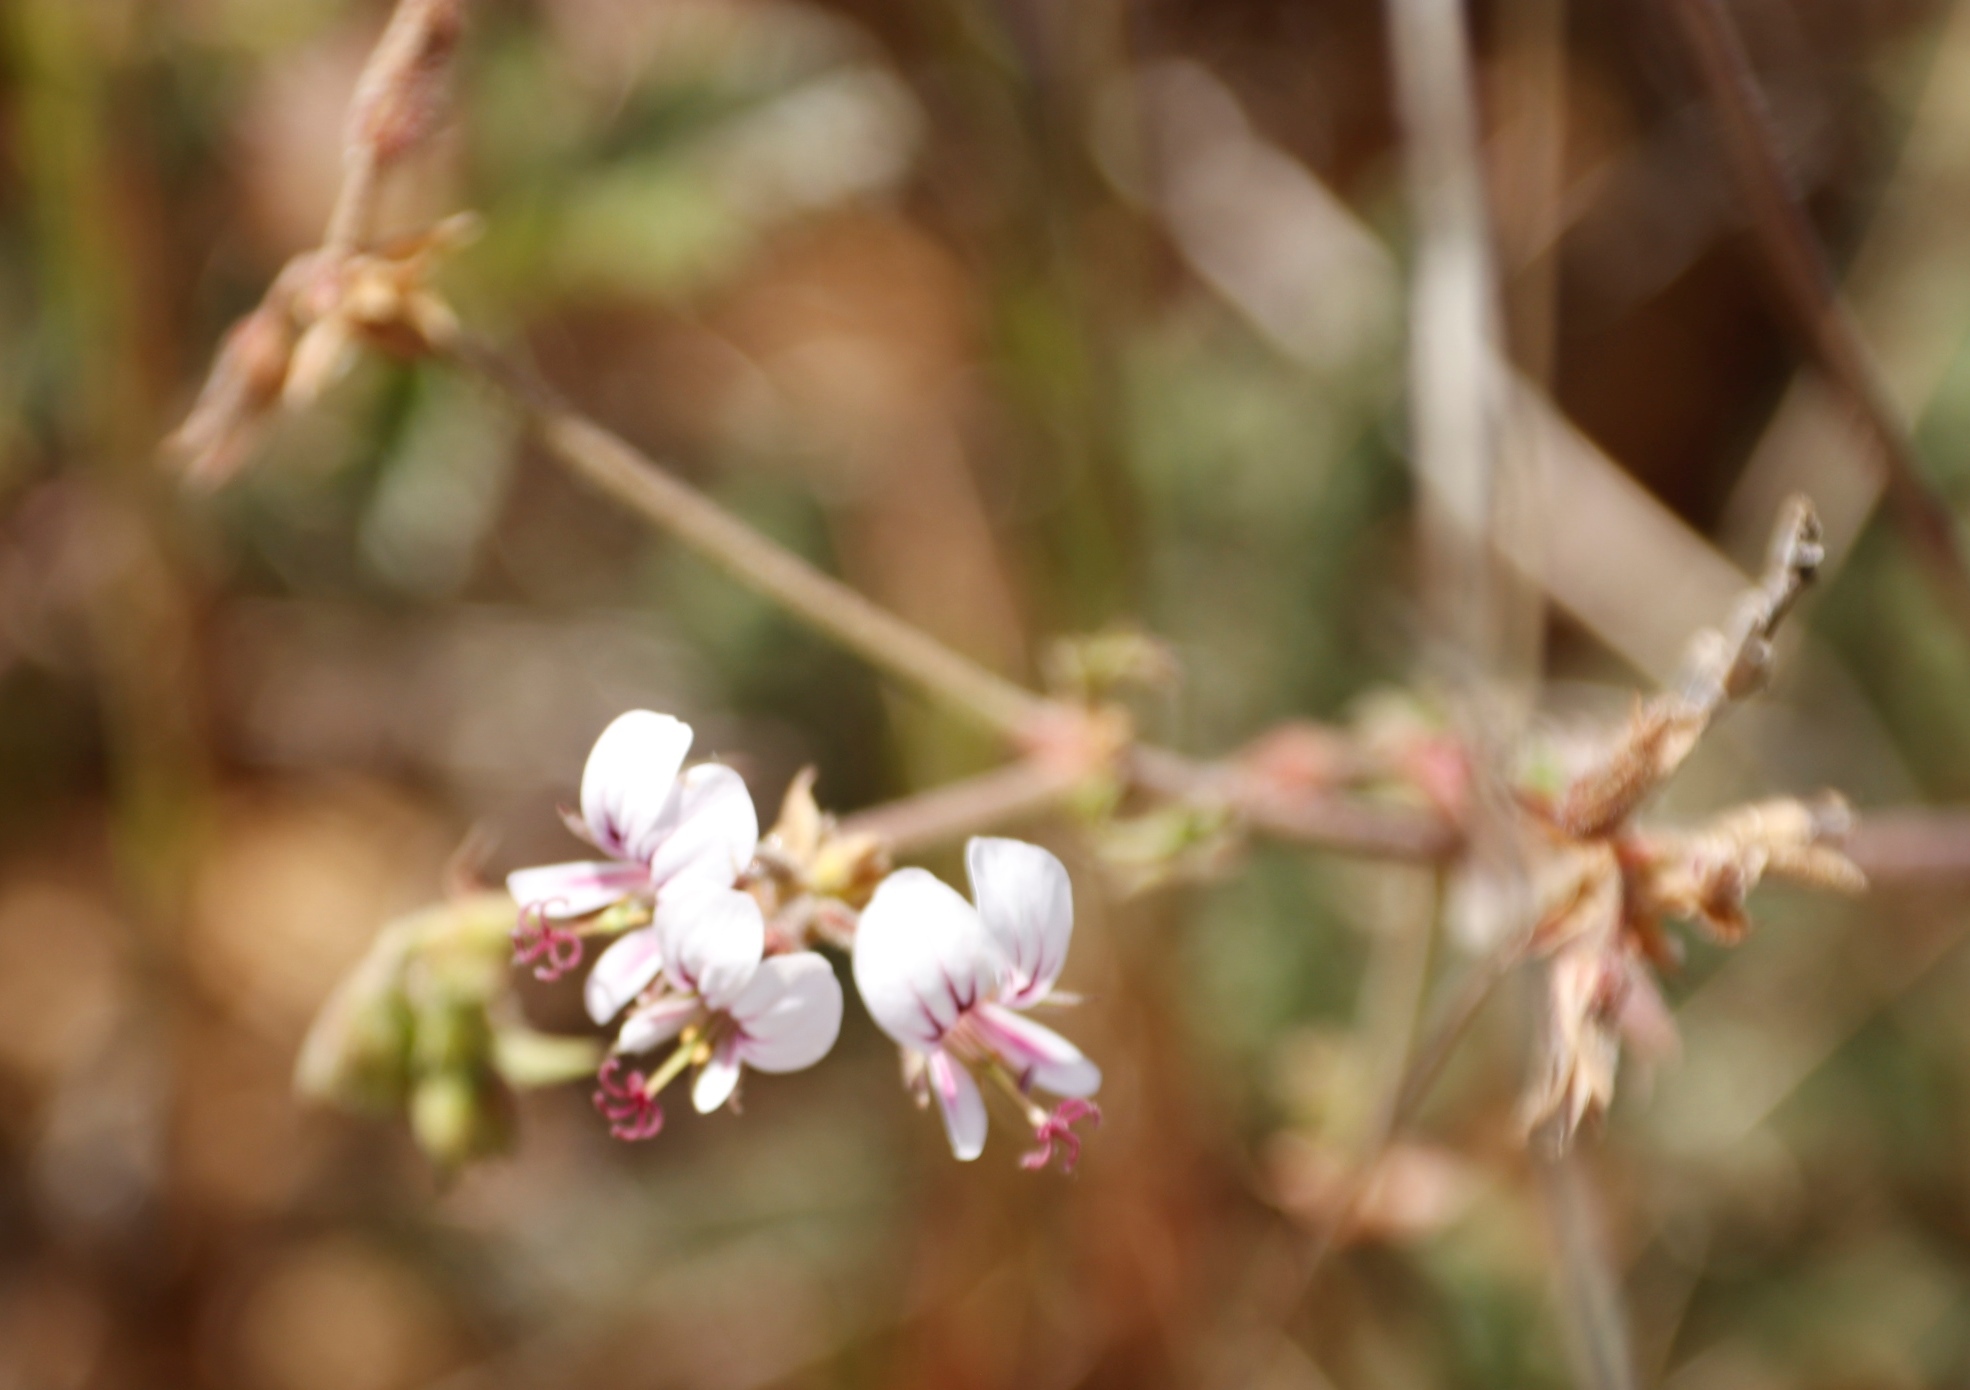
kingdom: Plantae
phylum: Tracheophyta
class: Magnoliopsida
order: Geraniales
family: Geraniaceae
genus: Pelargonium
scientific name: Pelargonium candicans
